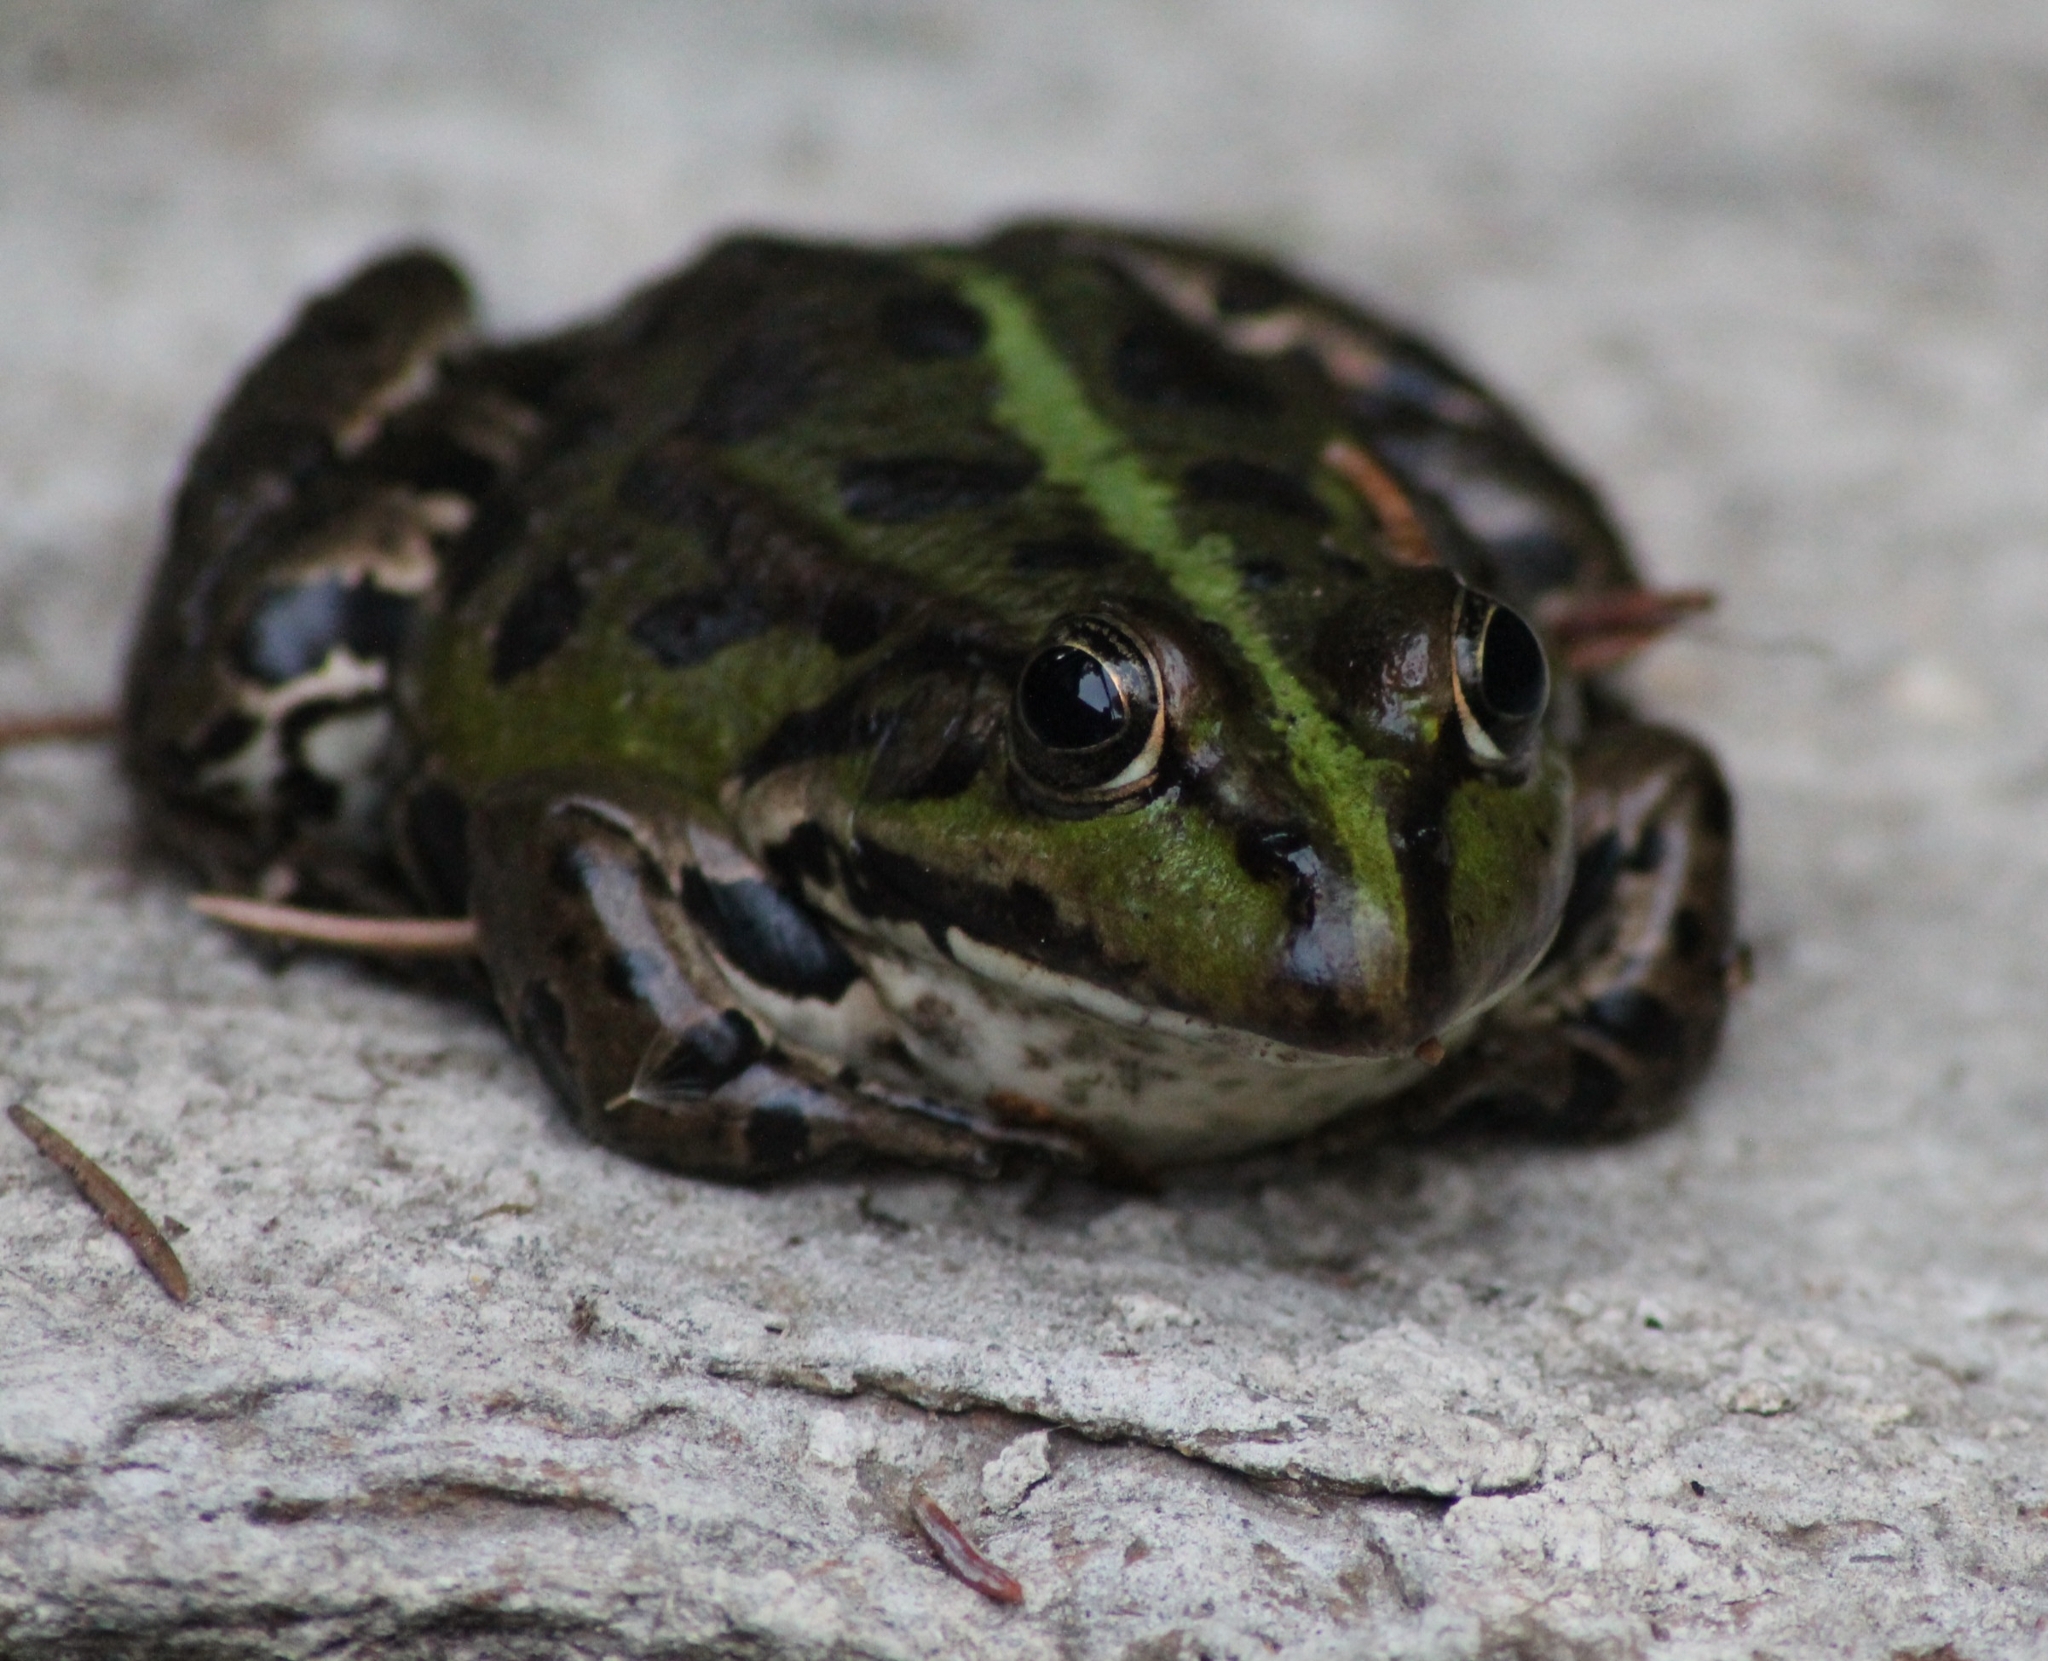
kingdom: Animalia
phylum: Chordata
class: Amphibia
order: Anura
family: Ranidae
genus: Pelophylax
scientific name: Pelophylax
